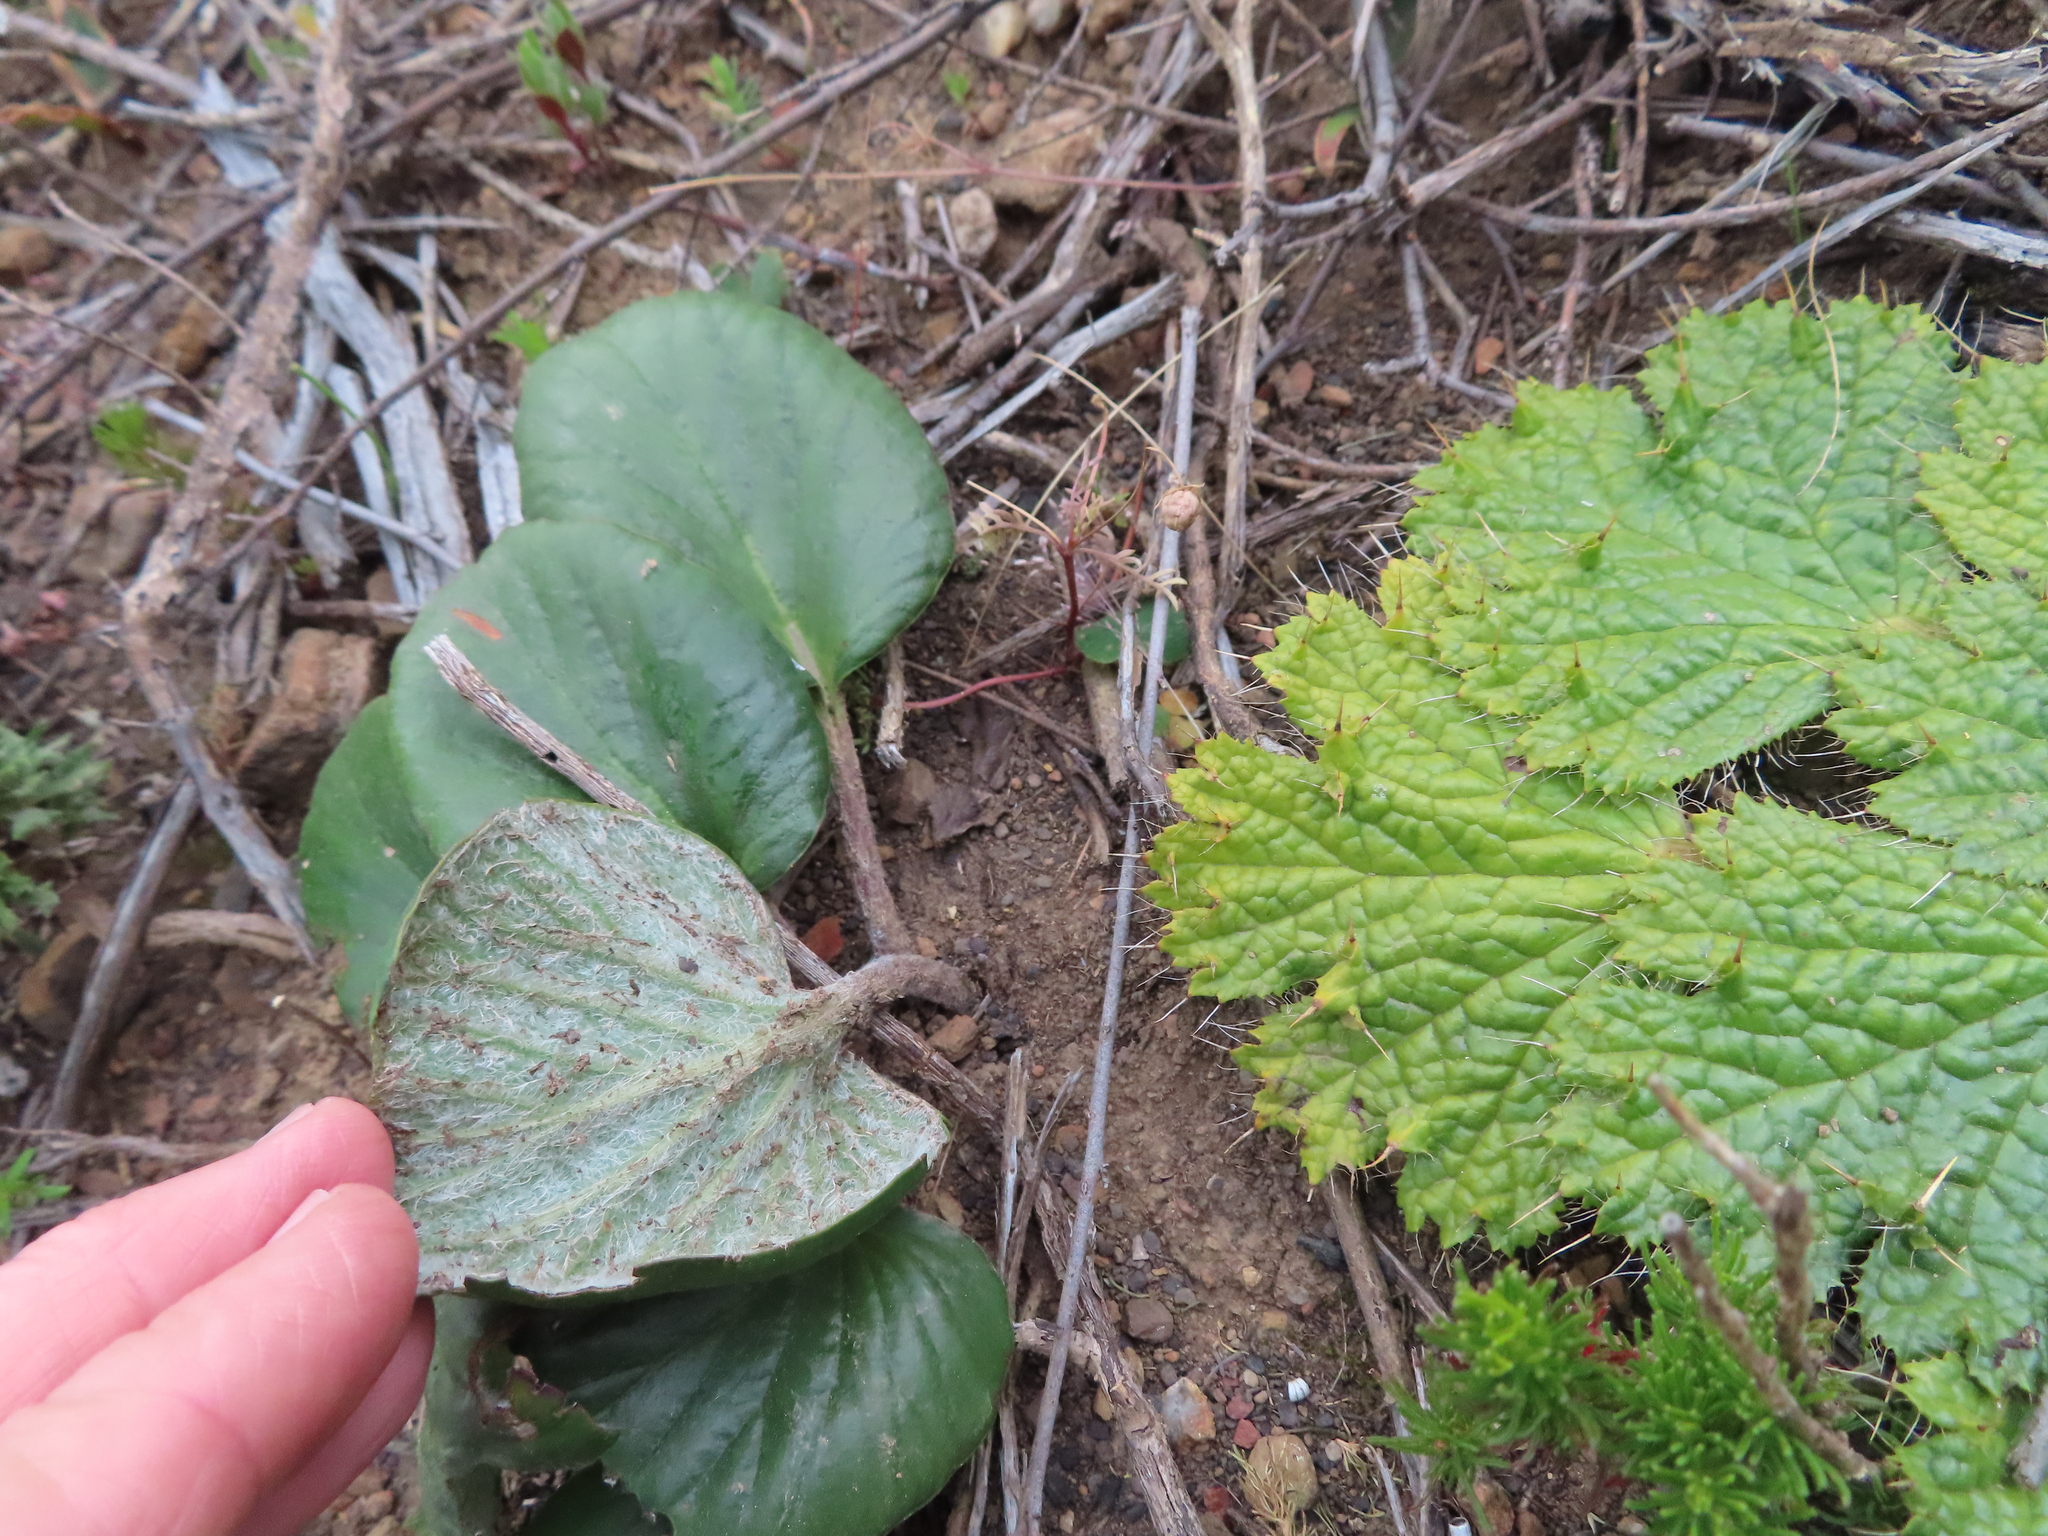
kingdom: Plantae
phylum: Tracheophyta
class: Magnoliopsida
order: Geraniales
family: Geraniaceae
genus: Pelargonium
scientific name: Pelargonium asarifolium
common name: Asarum-leaf pelargonium
